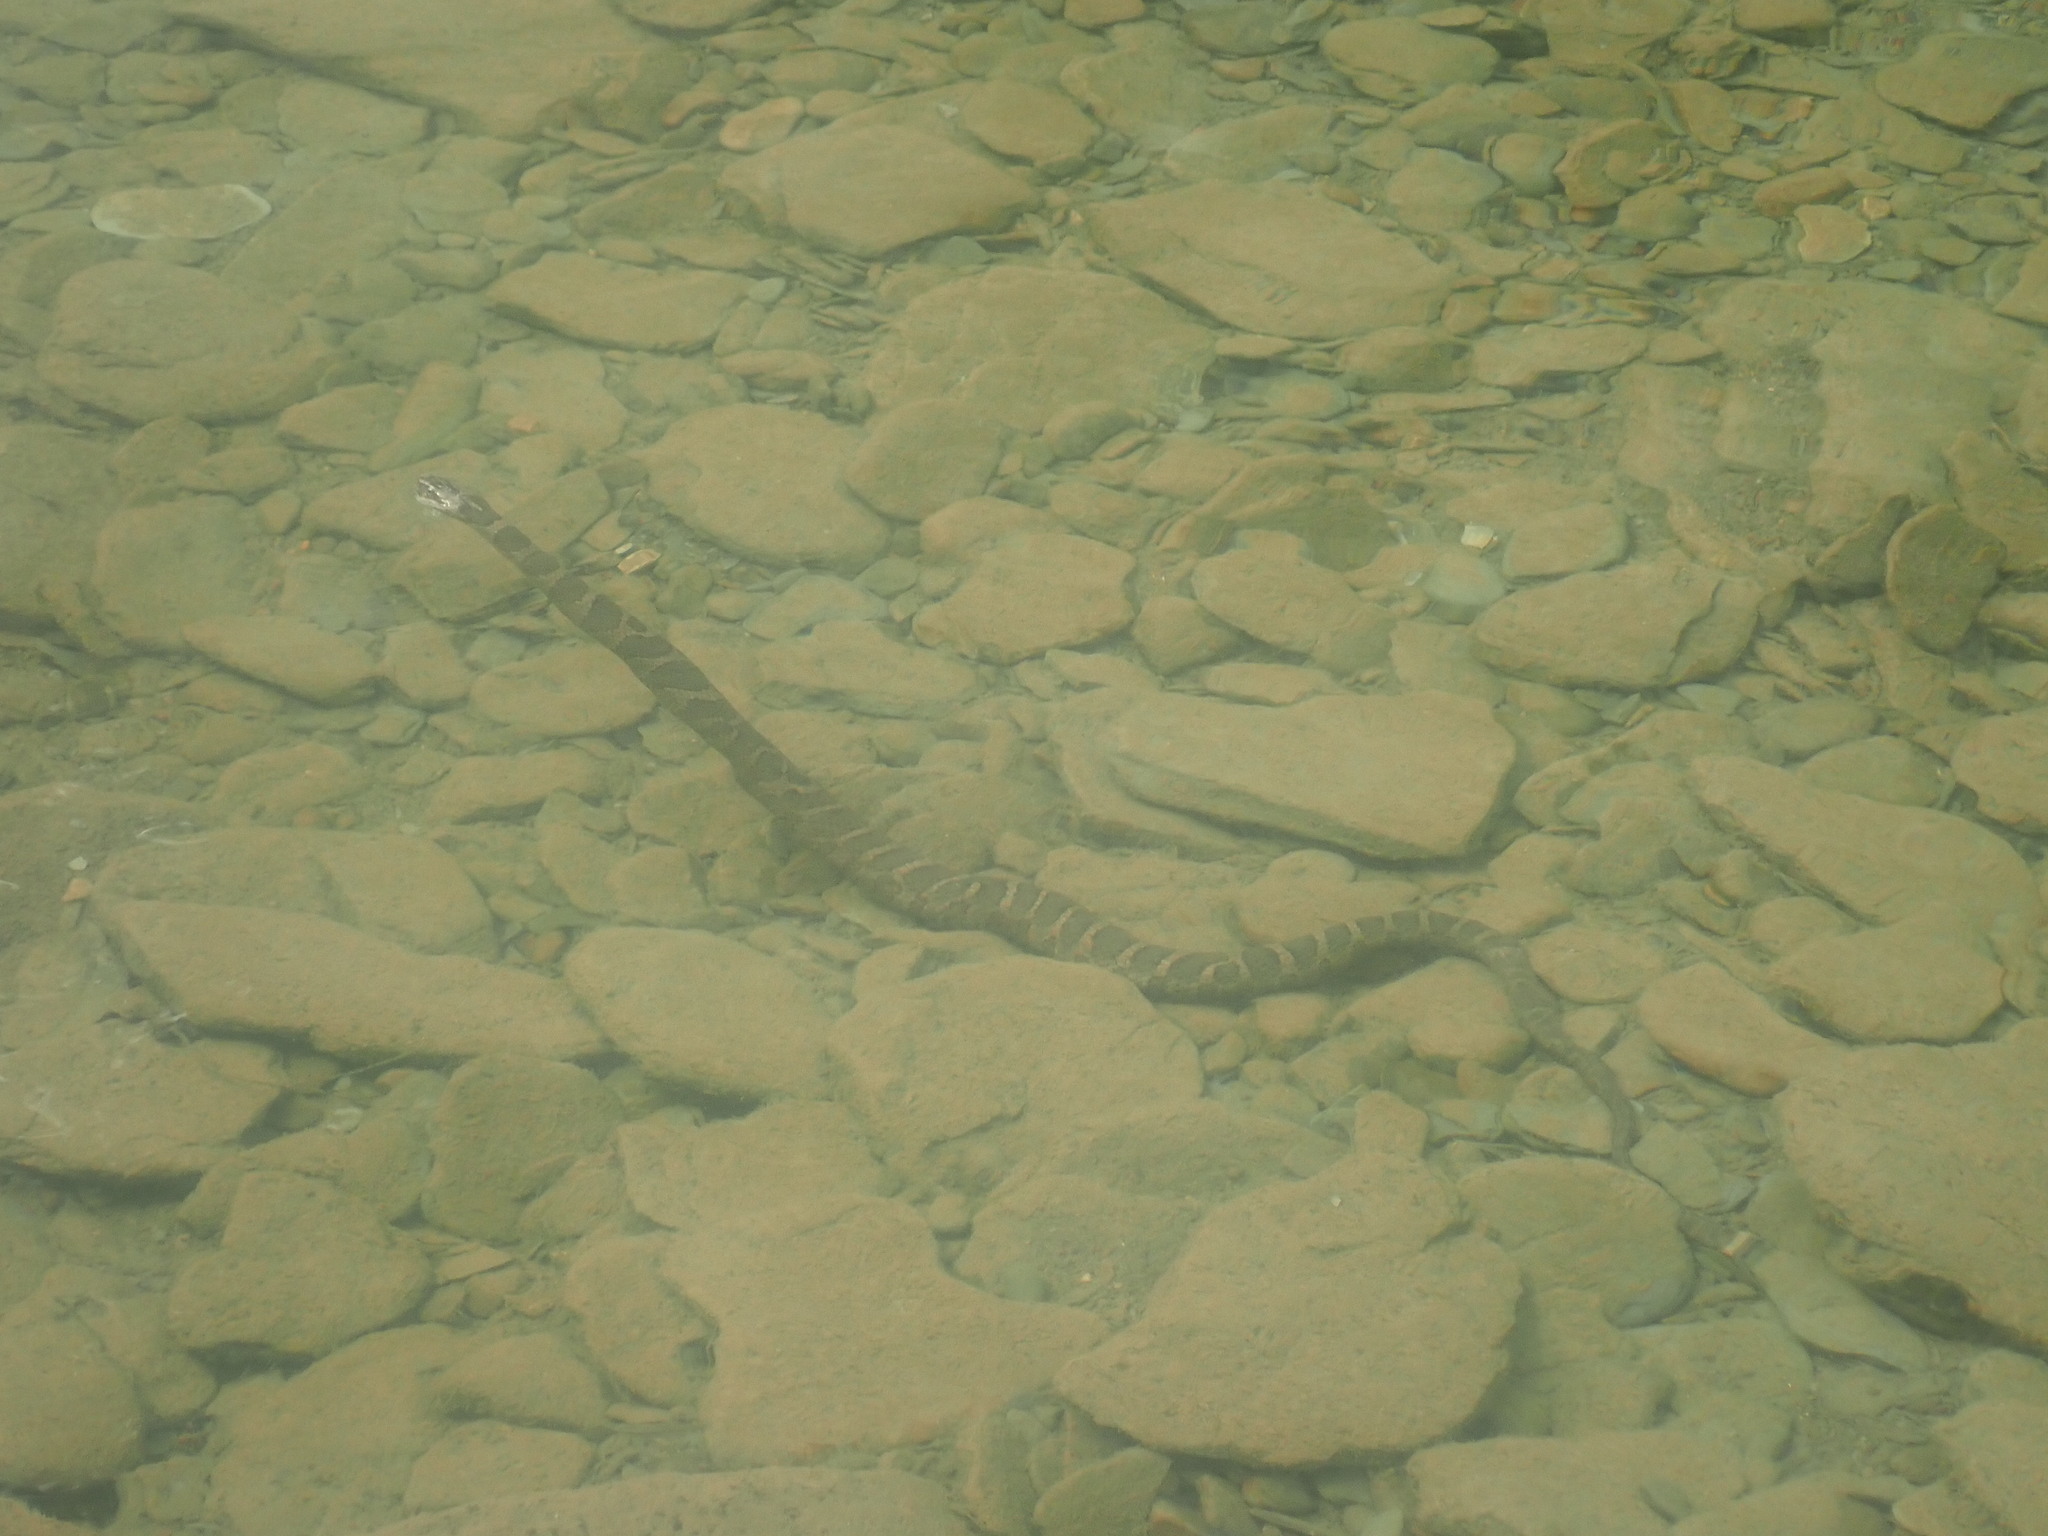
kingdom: Animalia
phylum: Chordata
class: Squamata
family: Colubridae
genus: Nerodia
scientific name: Nerodia sipedon
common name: Northern water snake
